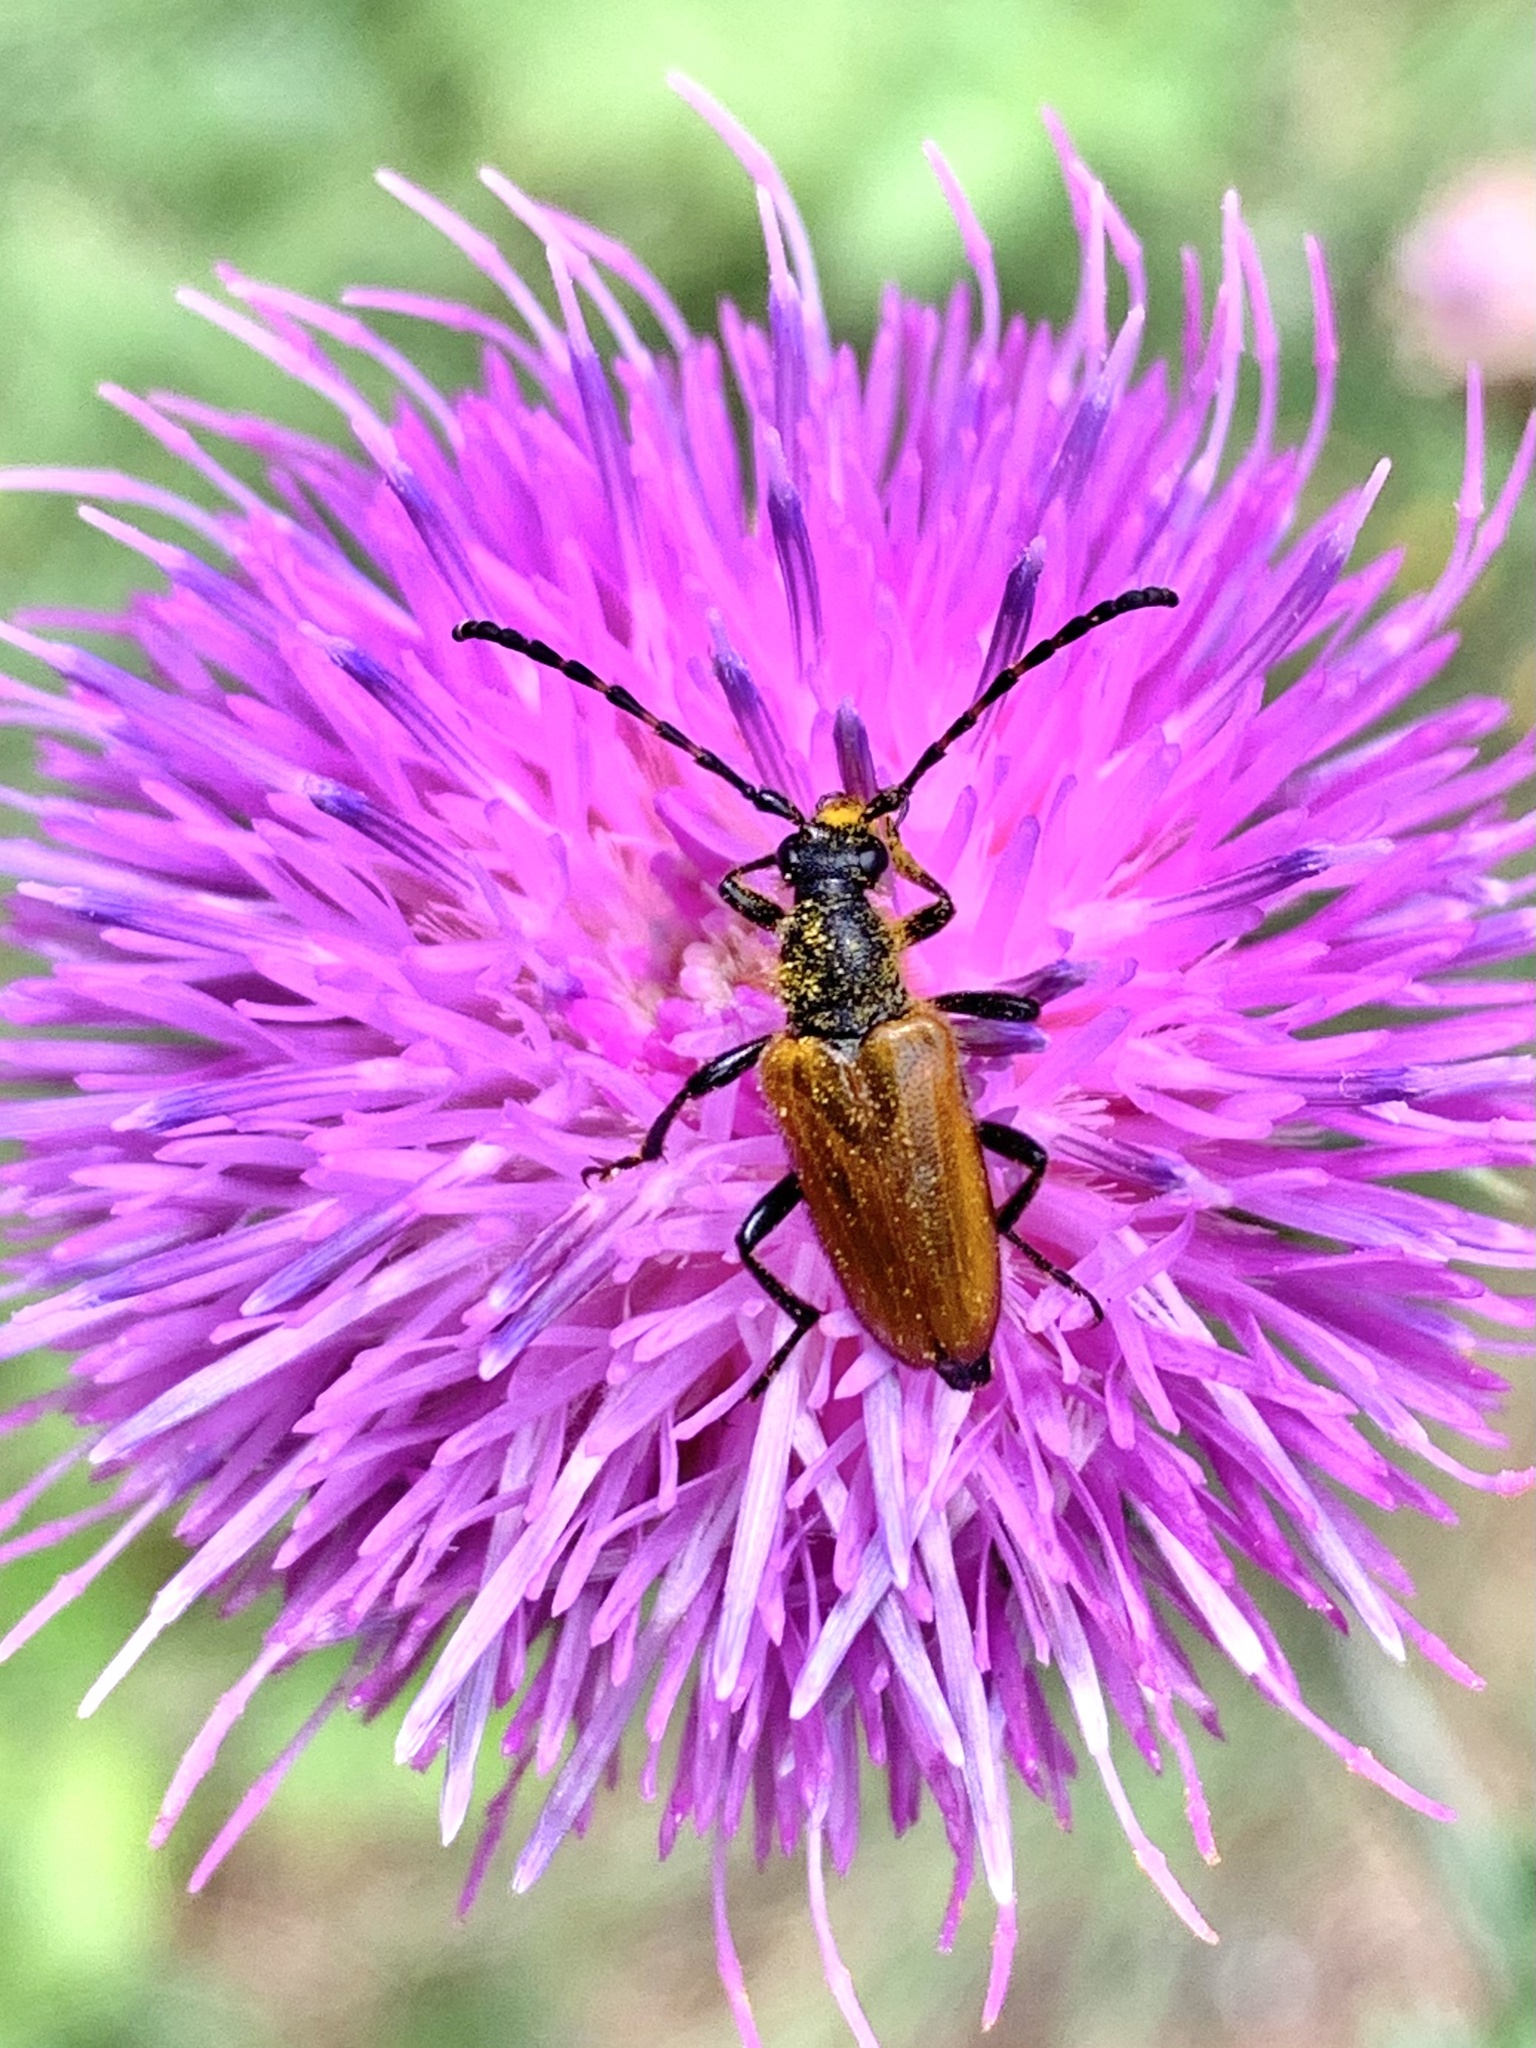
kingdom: Animalia
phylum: Arthropoda
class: Insecta
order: Coleoptera
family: Cerambycidae
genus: Paracorymbia
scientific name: Paracorymbia hybrida
